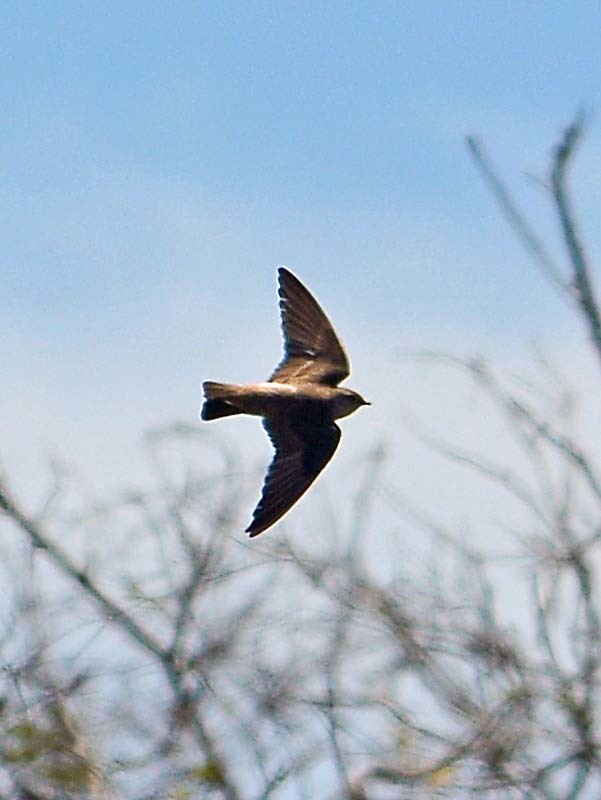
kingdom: Animalia
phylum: Chordata
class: Aves
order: Passeriformes
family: Hirundinidae
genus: Stelgidopteryx
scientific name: Stelgidopteryx serripennis
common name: Northern rough-winged swallow
